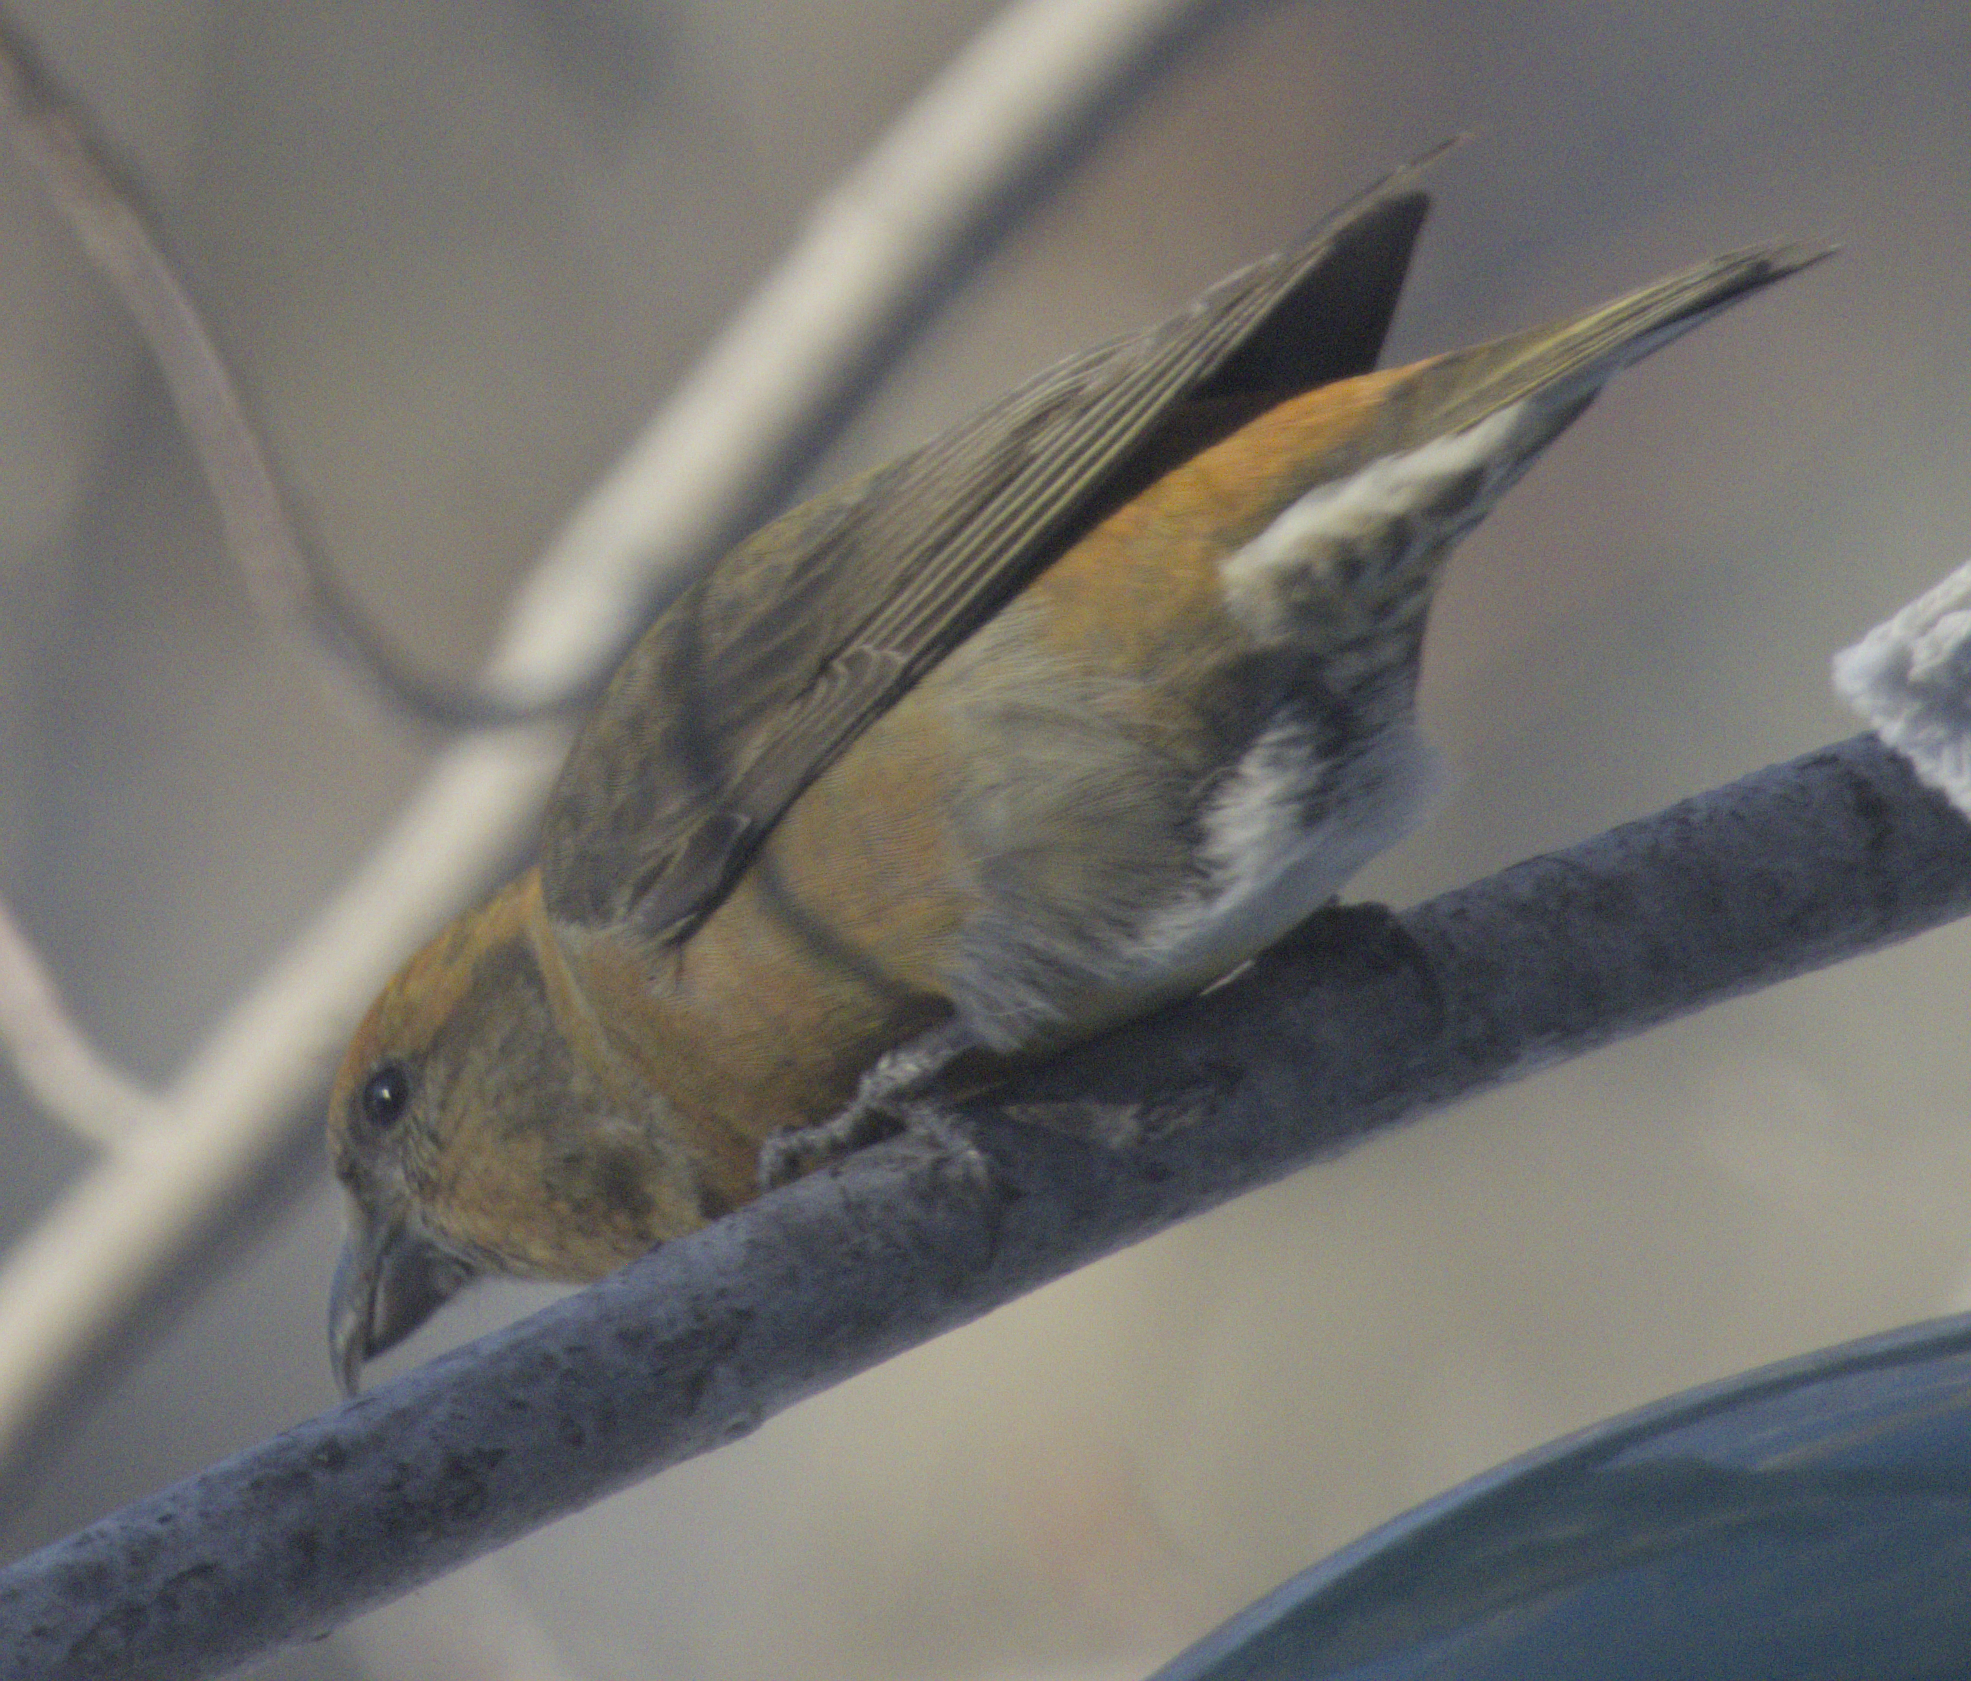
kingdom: Animalia
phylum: Chordata
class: Aves
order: Passeriformes
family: Fringillidae
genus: Loxia
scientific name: Loxia curvirostra
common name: Red crossbill
